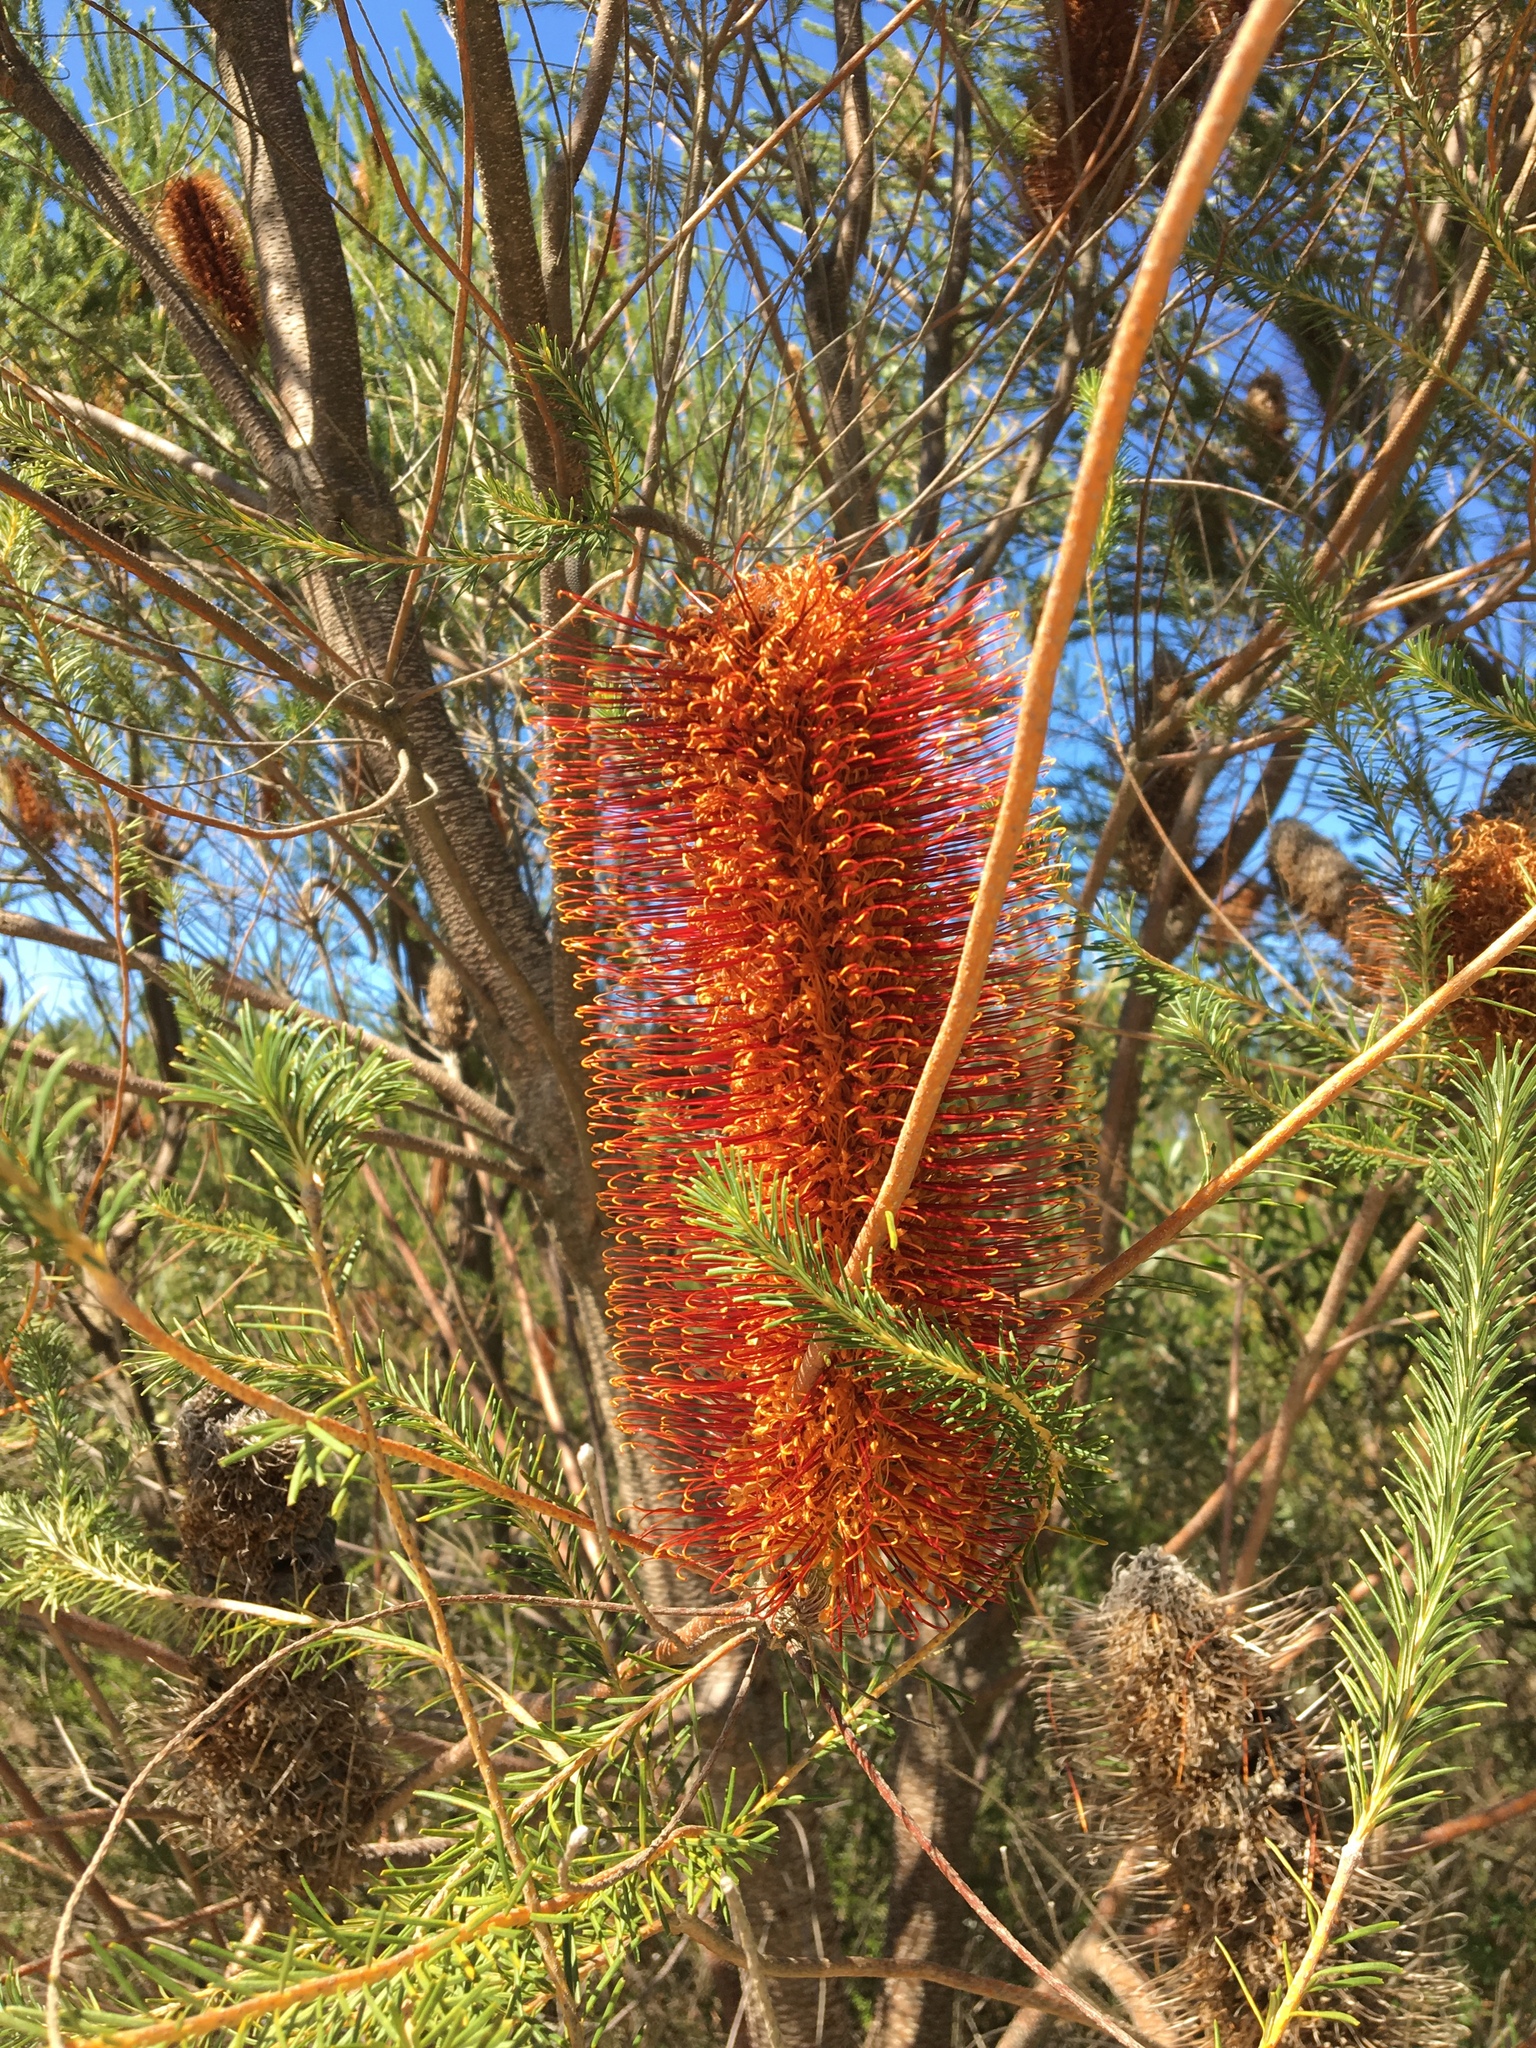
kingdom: Plantae
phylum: Tracheophyta
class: Magnoliopsida
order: Proteales
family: Proteaceae
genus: Banksia
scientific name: Banksia ericifolia
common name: Heath-leaf banksia
